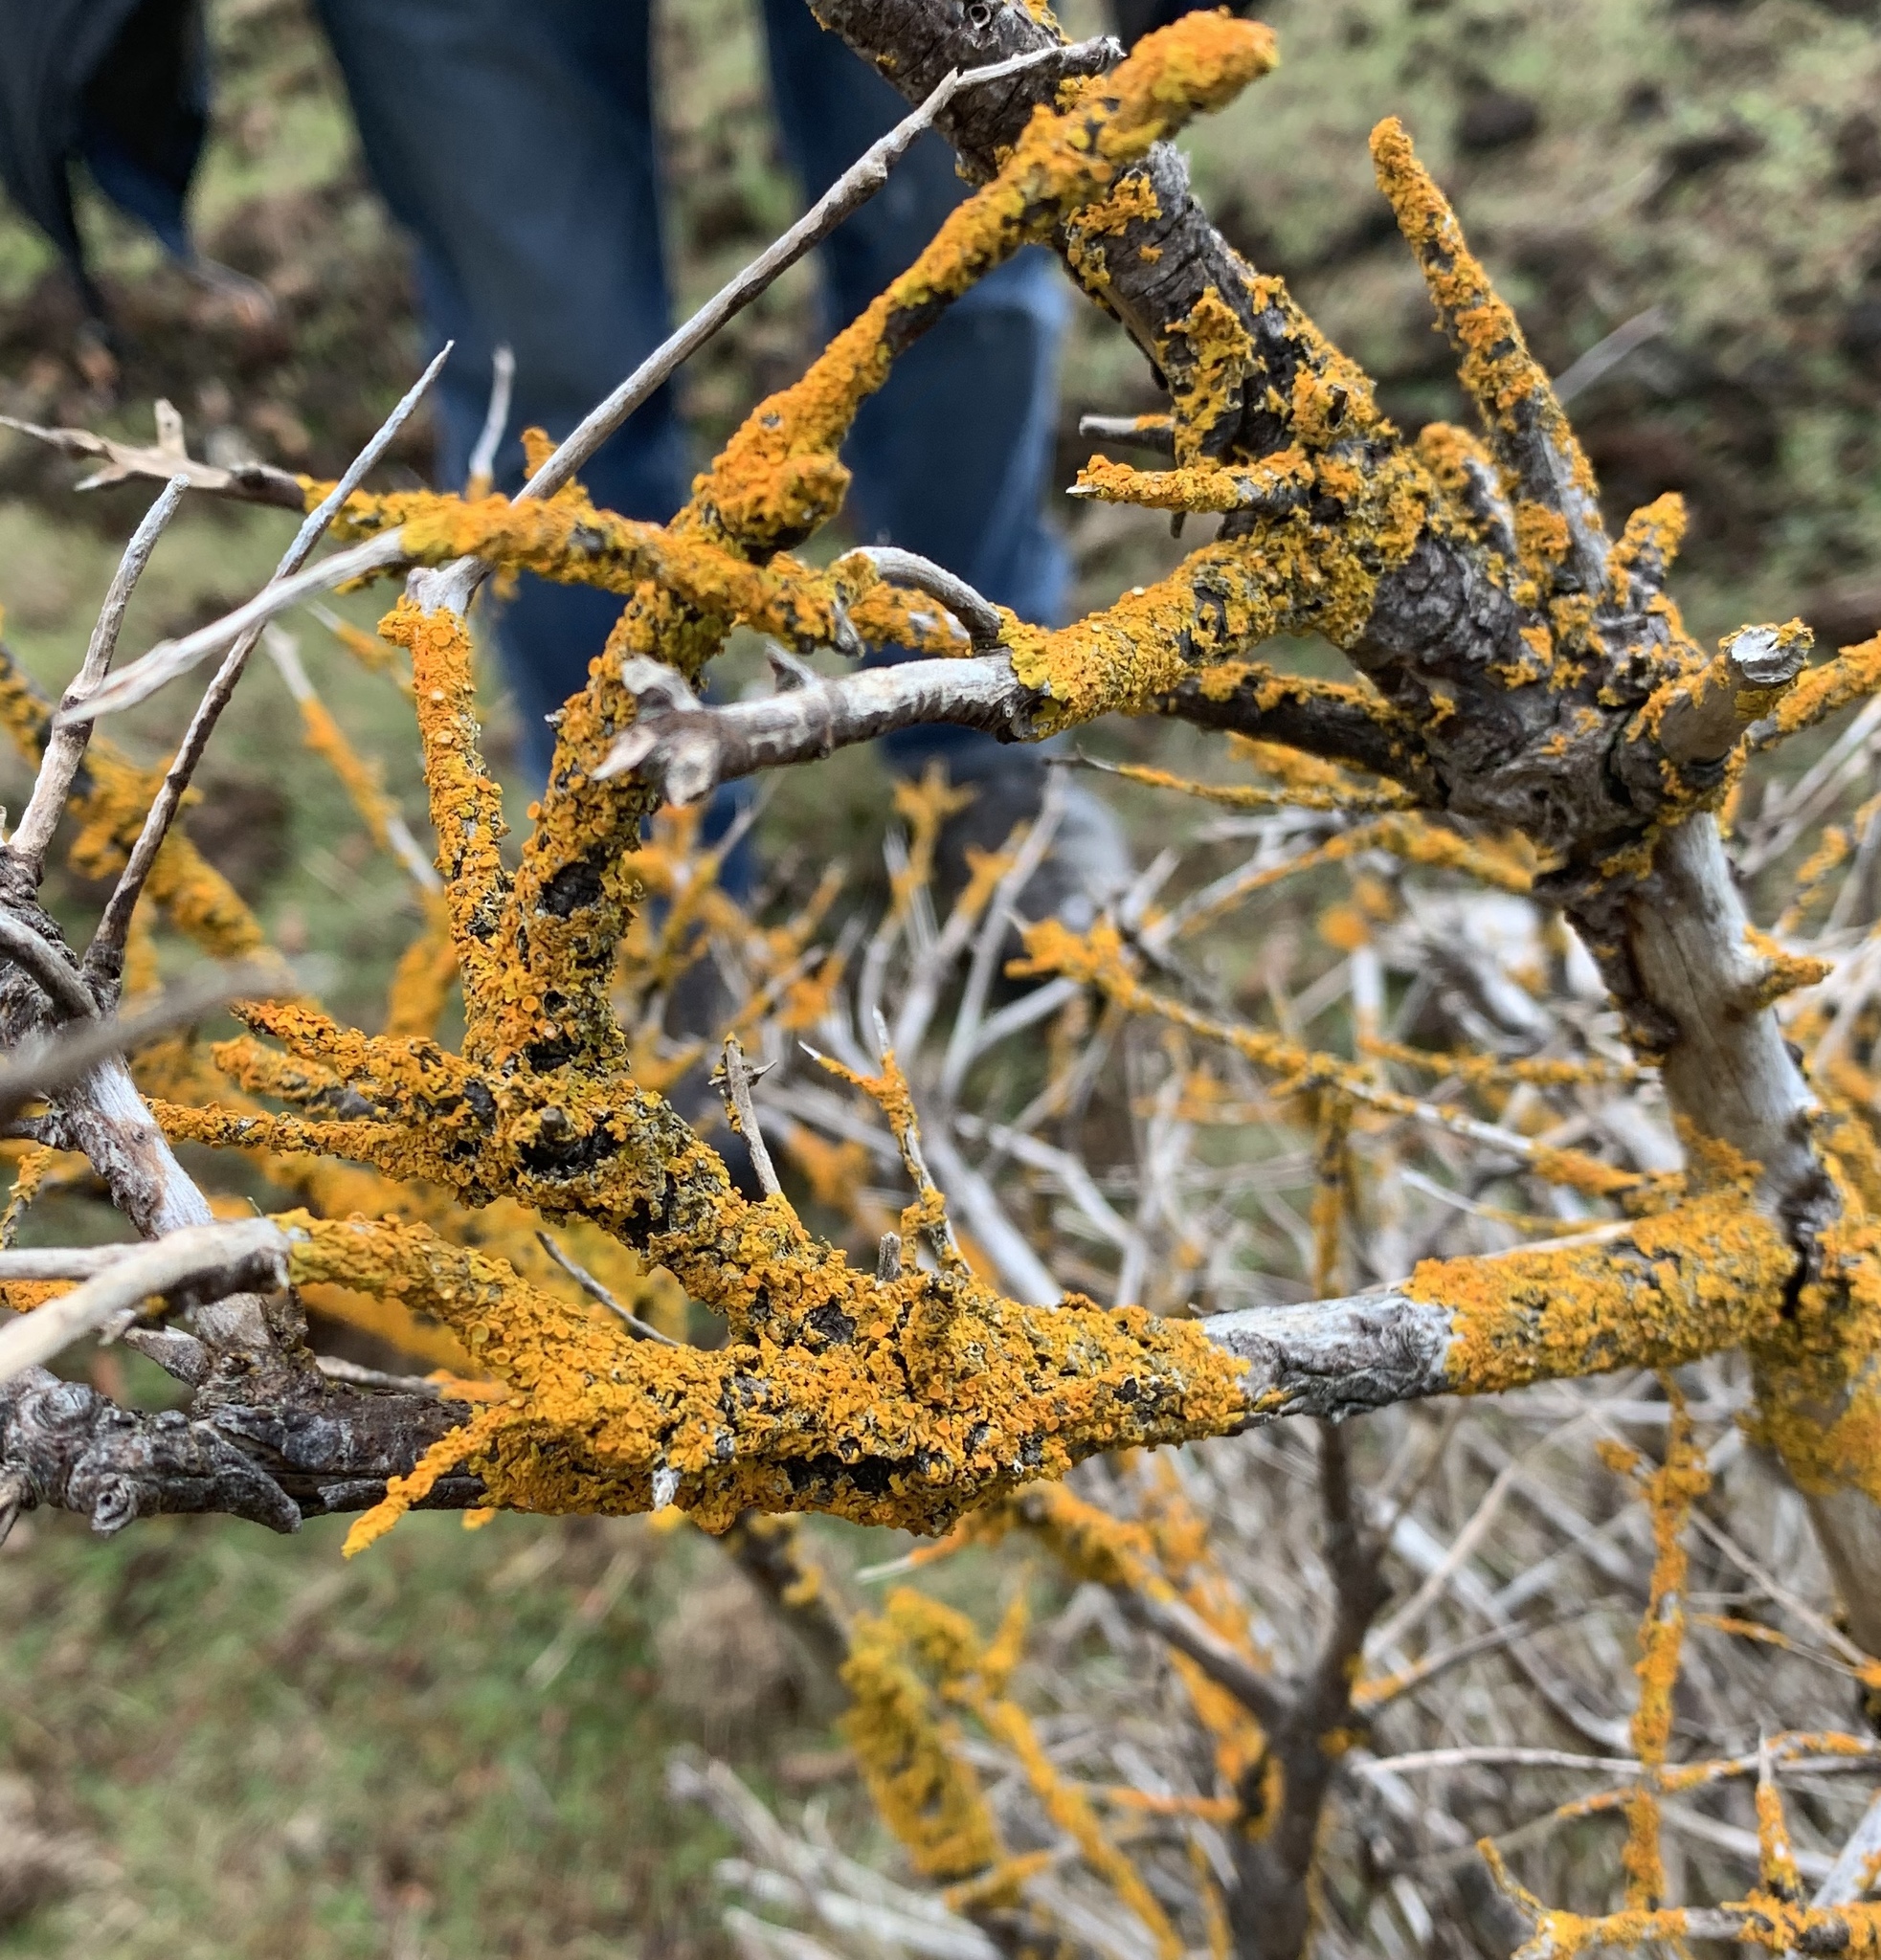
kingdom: Fungi
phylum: Ascomycota
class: Lecanoromycetes
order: Teloschistales
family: Teloschistaceae
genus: Xanthoria
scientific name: Xanthoria parietina
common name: Common orange lichen
